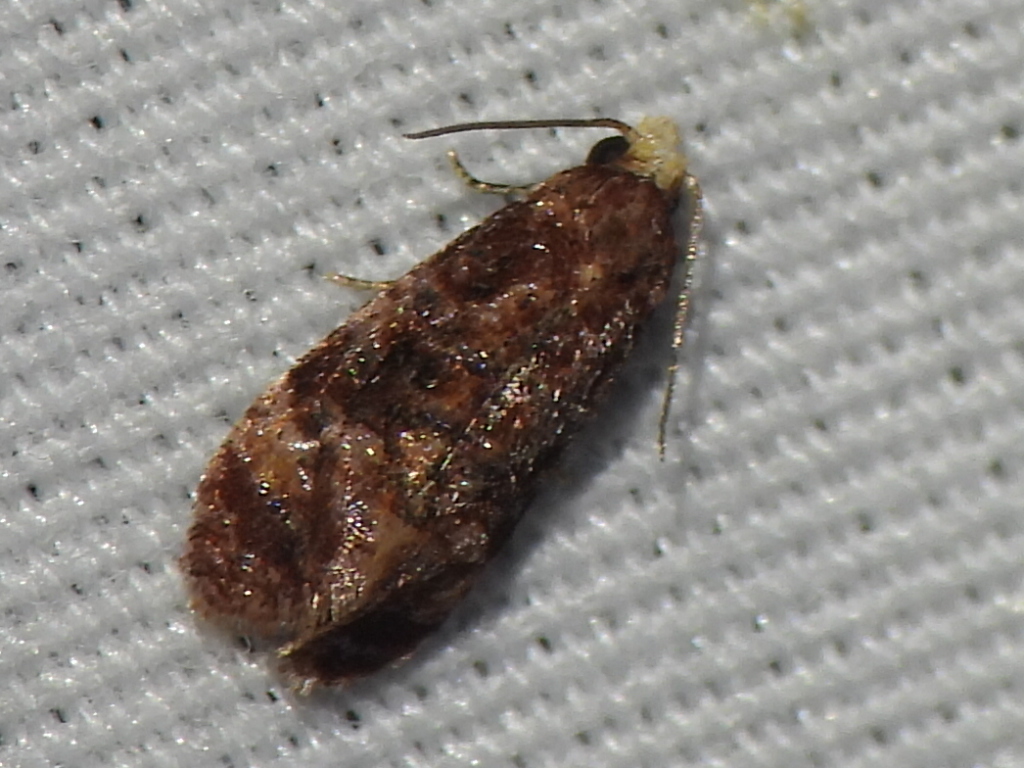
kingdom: Animalia
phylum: Arthropoda
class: Insecta
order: Lepidoptera
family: Tortricidae
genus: Phalonia
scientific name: Phalonia cephalanthana
